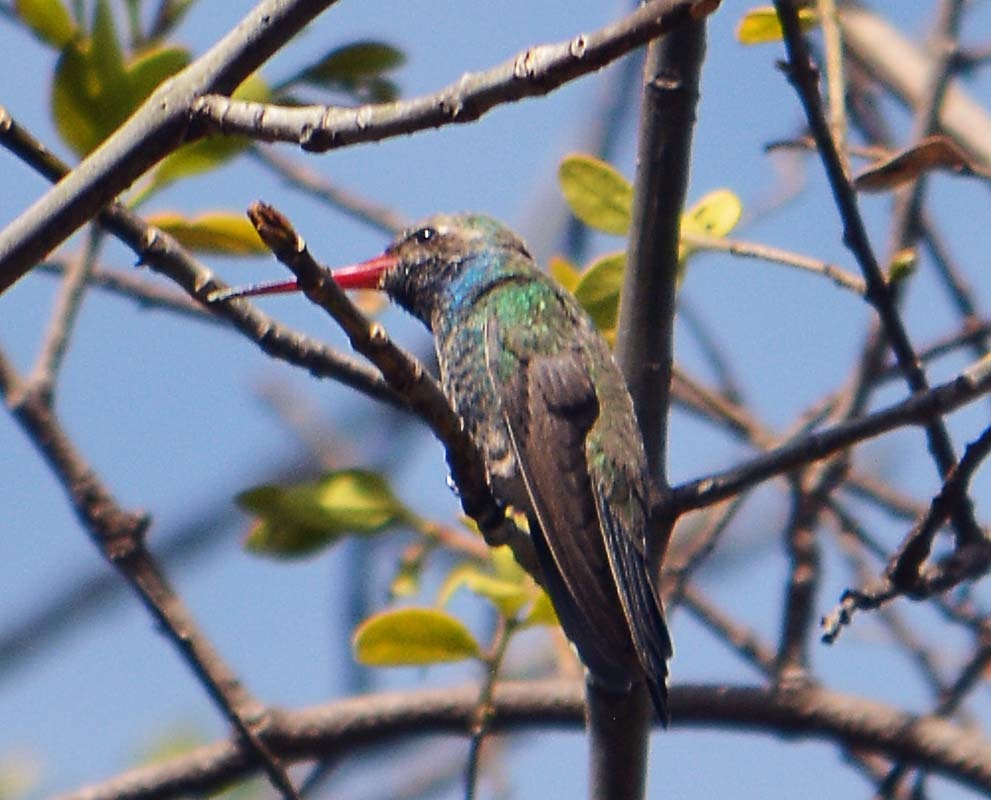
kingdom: Animalia
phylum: Chordata
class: Aves
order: Apodiformes
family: Trochilidae
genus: Cynanthus
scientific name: Cynanthus latirostris
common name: Broad-billed hummingbird
